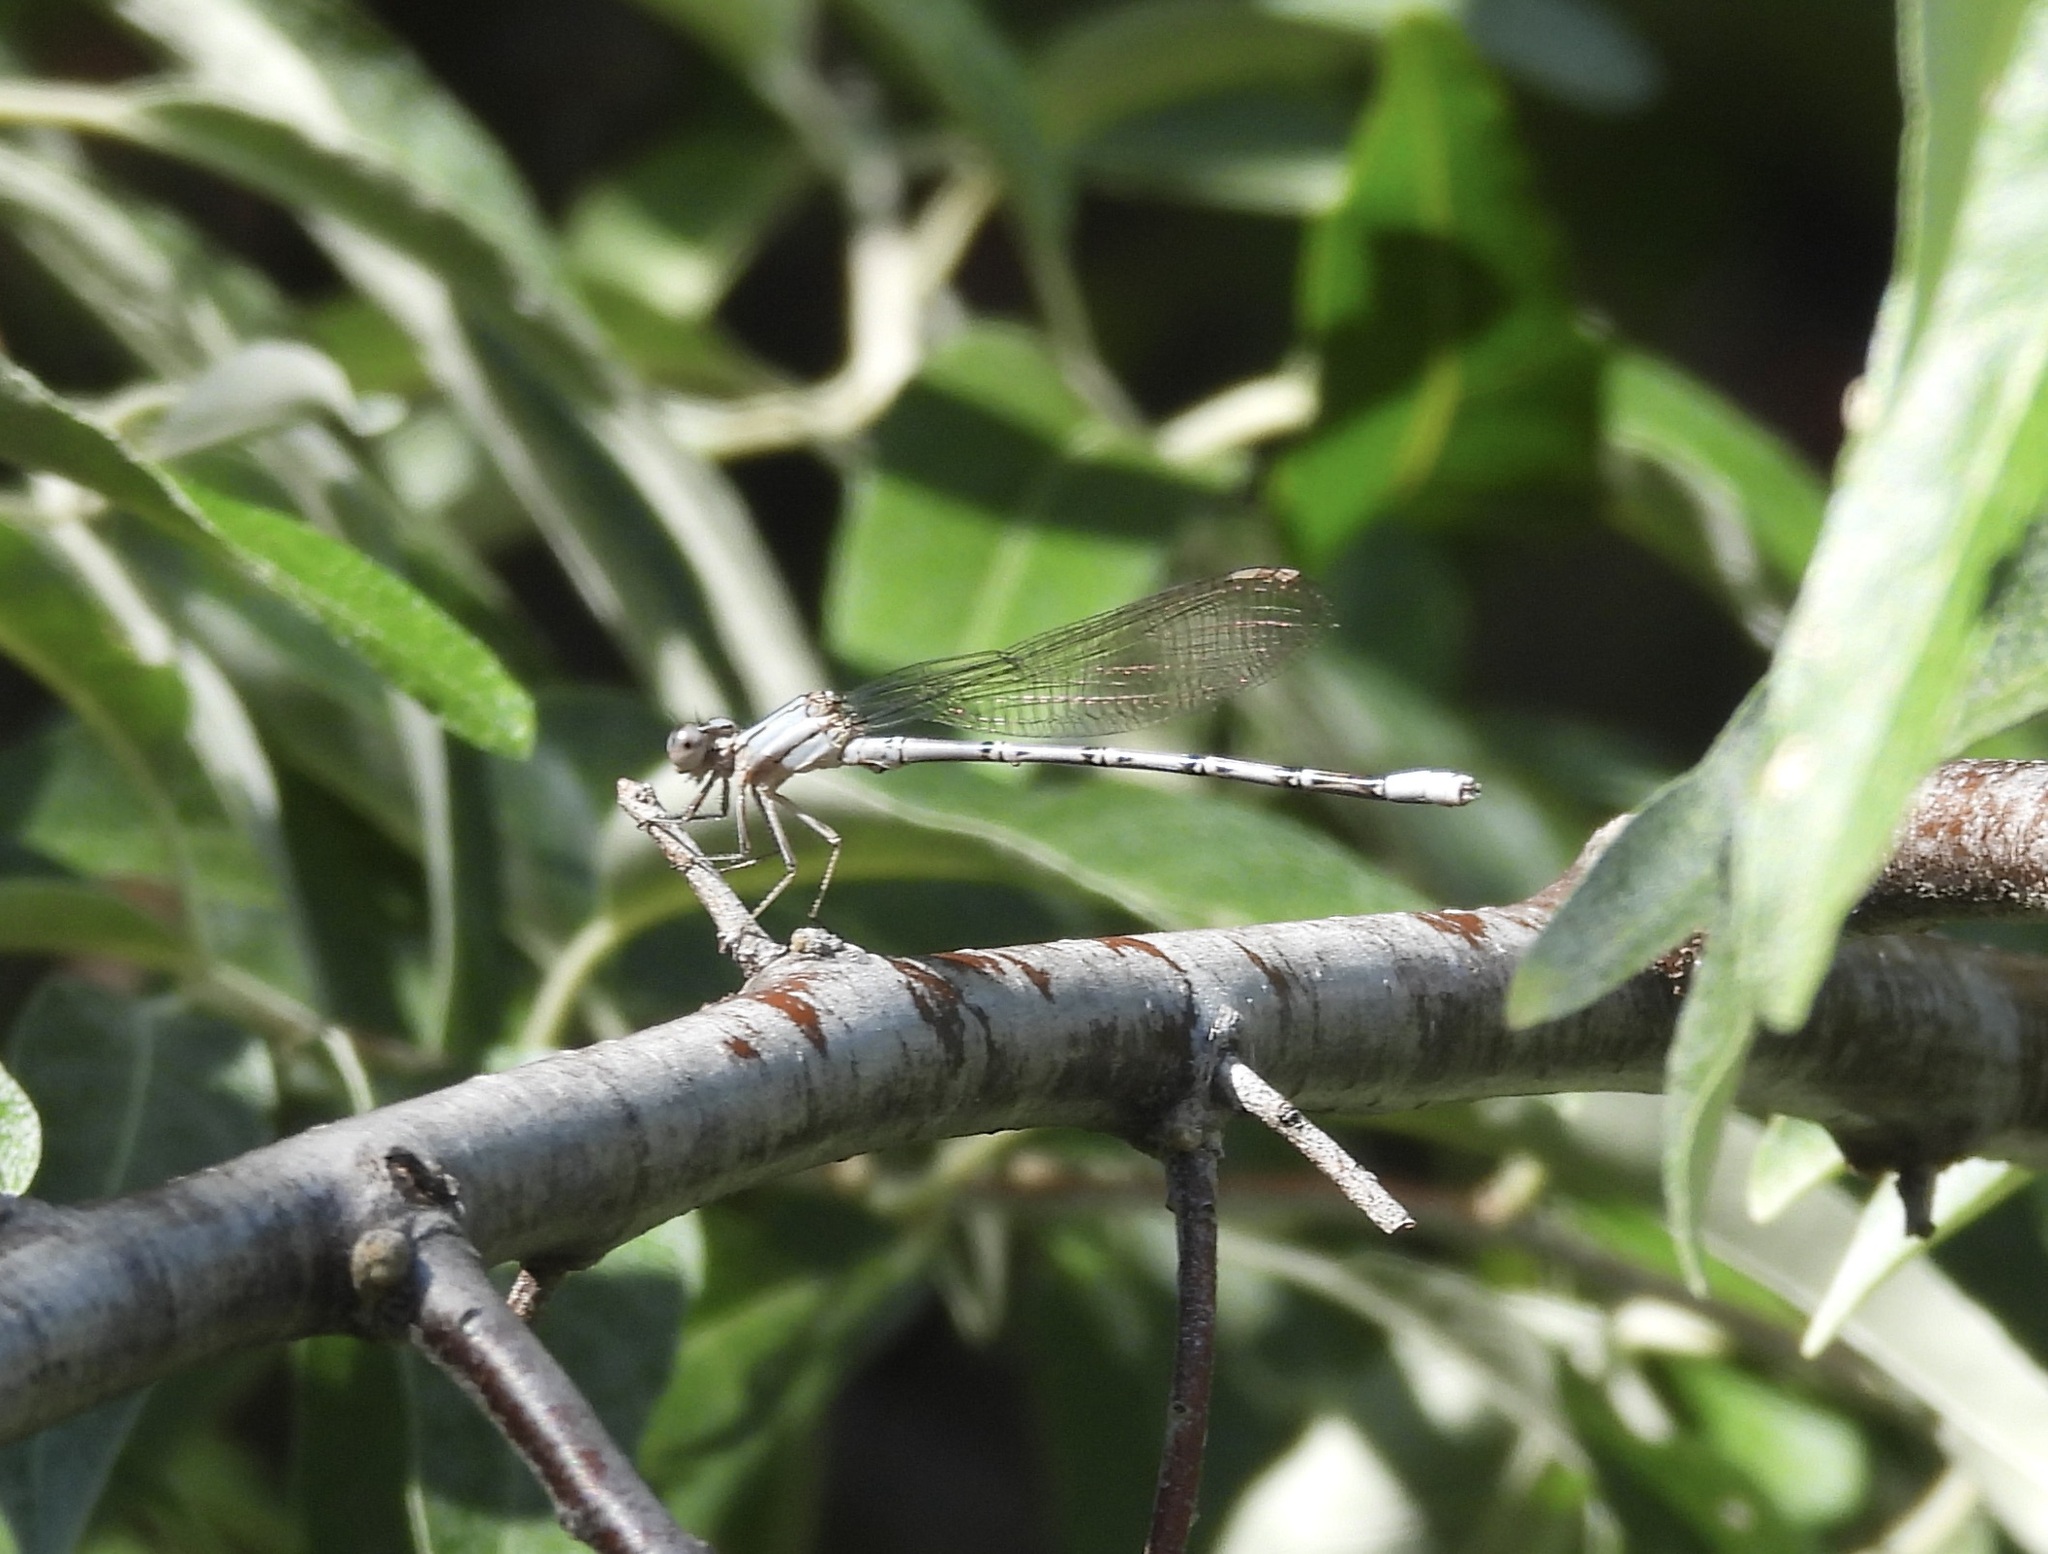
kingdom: Animalia
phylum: Arthropoda
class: Insecta
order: Odonata
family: Coenagrionidae
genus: Argia
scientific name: Argia funebris
